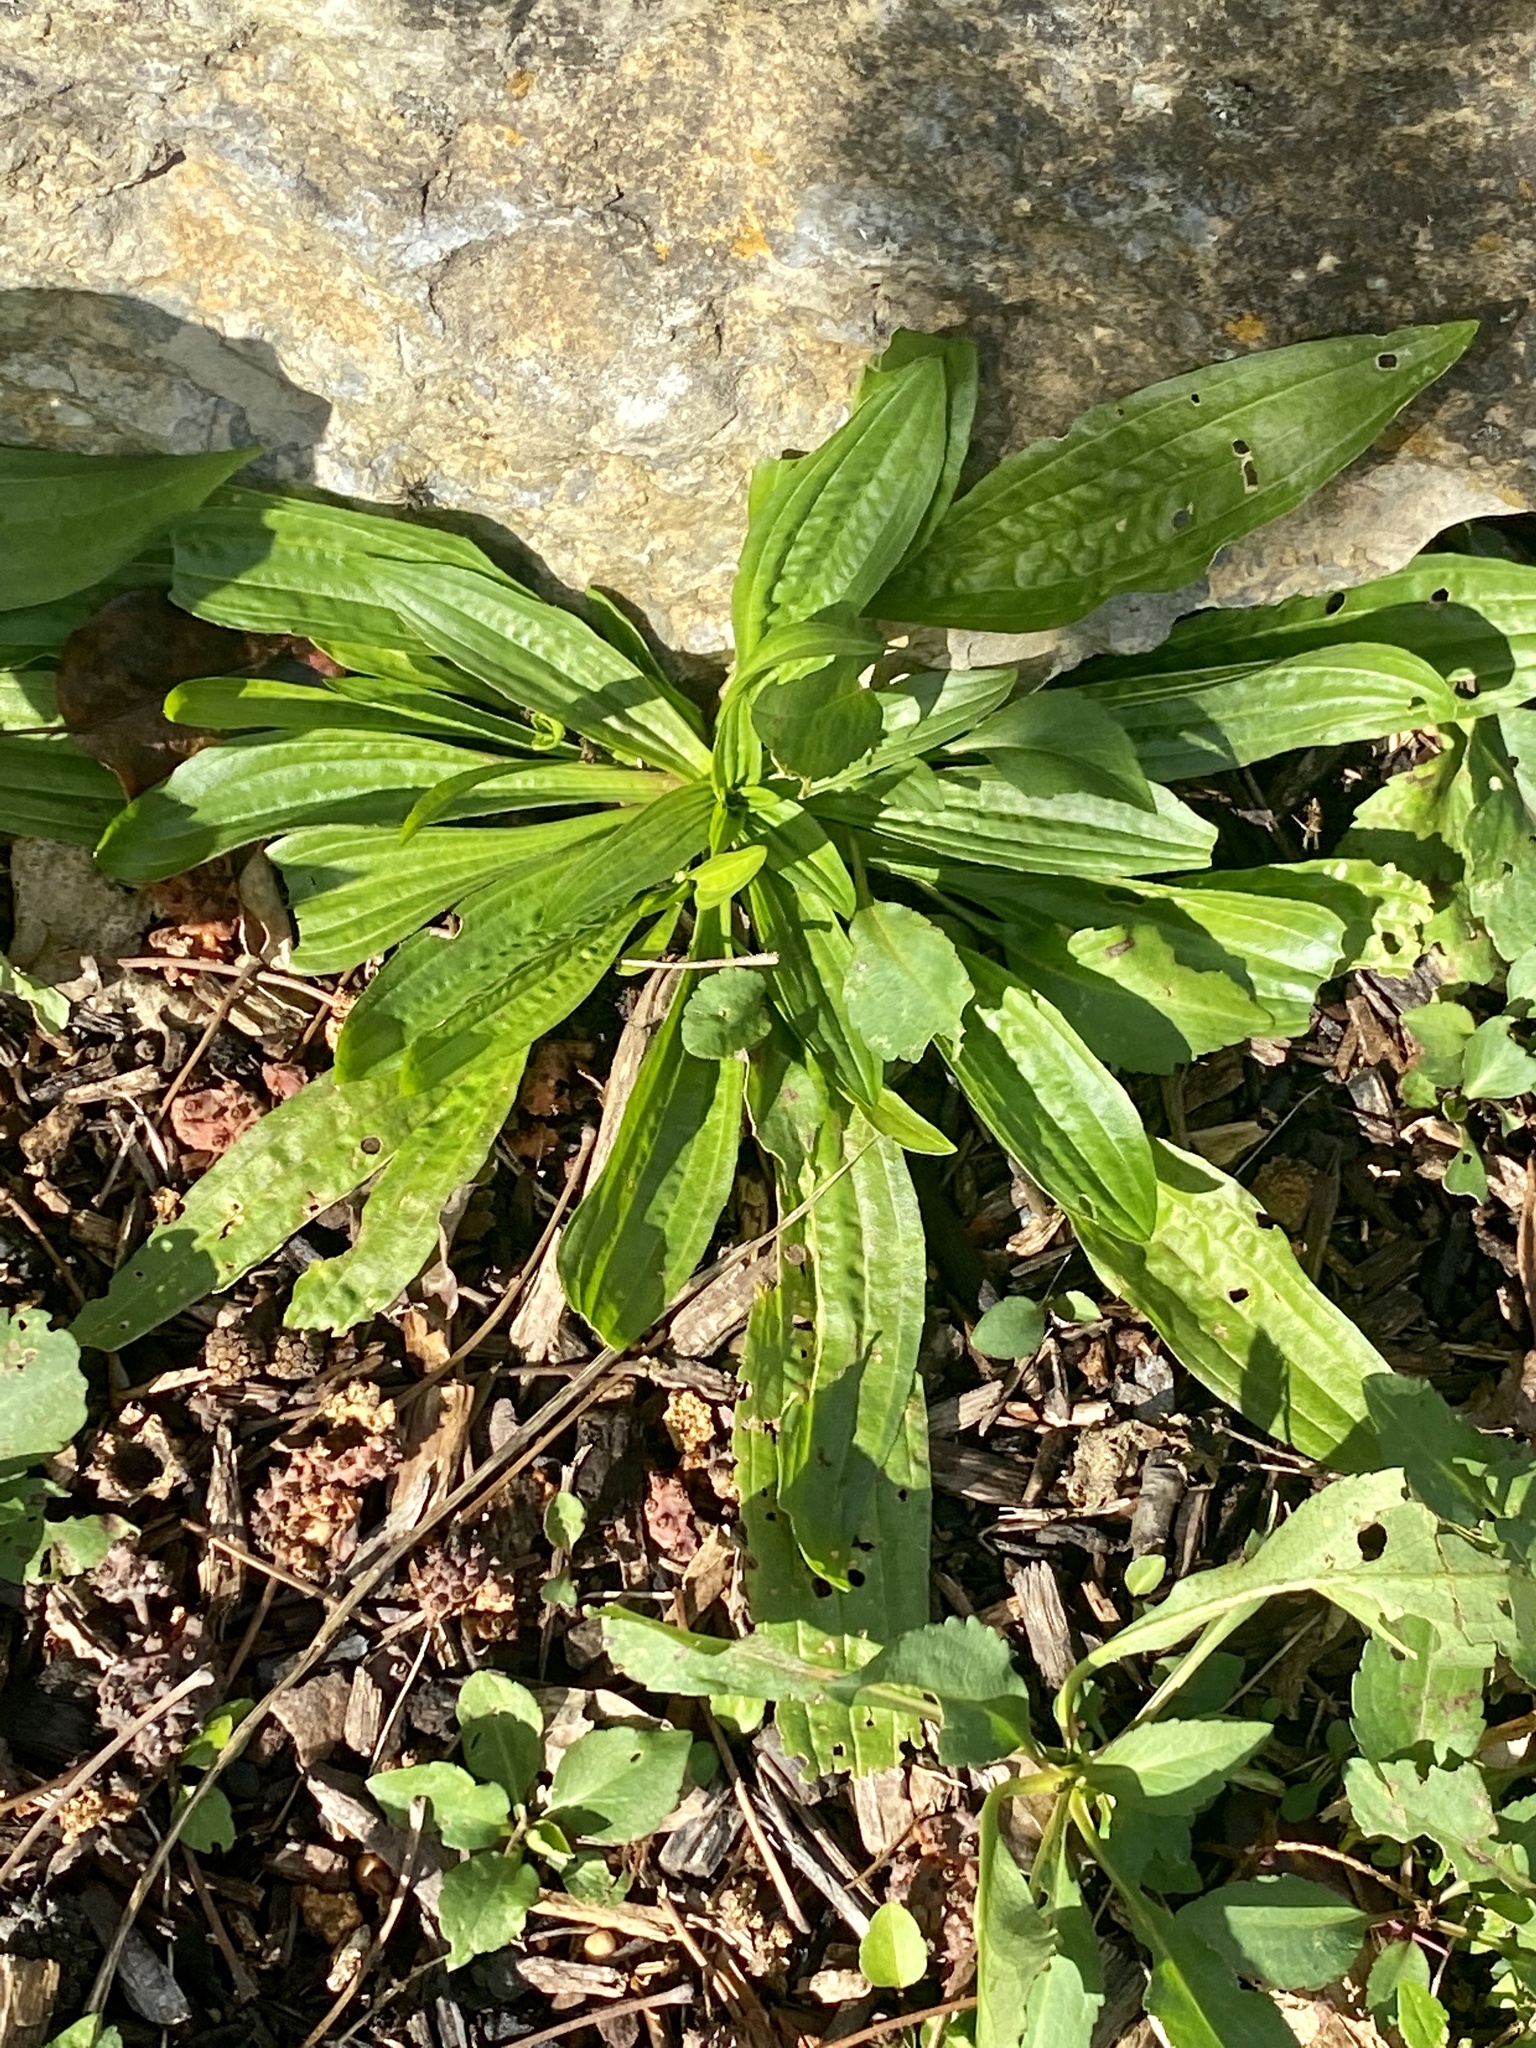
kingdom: Plantae
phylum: Tracheophyta
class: Magnoliopsida
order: Lamiales
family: Plantaginaceae
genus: Plantago
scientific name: Plantago lanceolata
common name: Ribwort plantain
